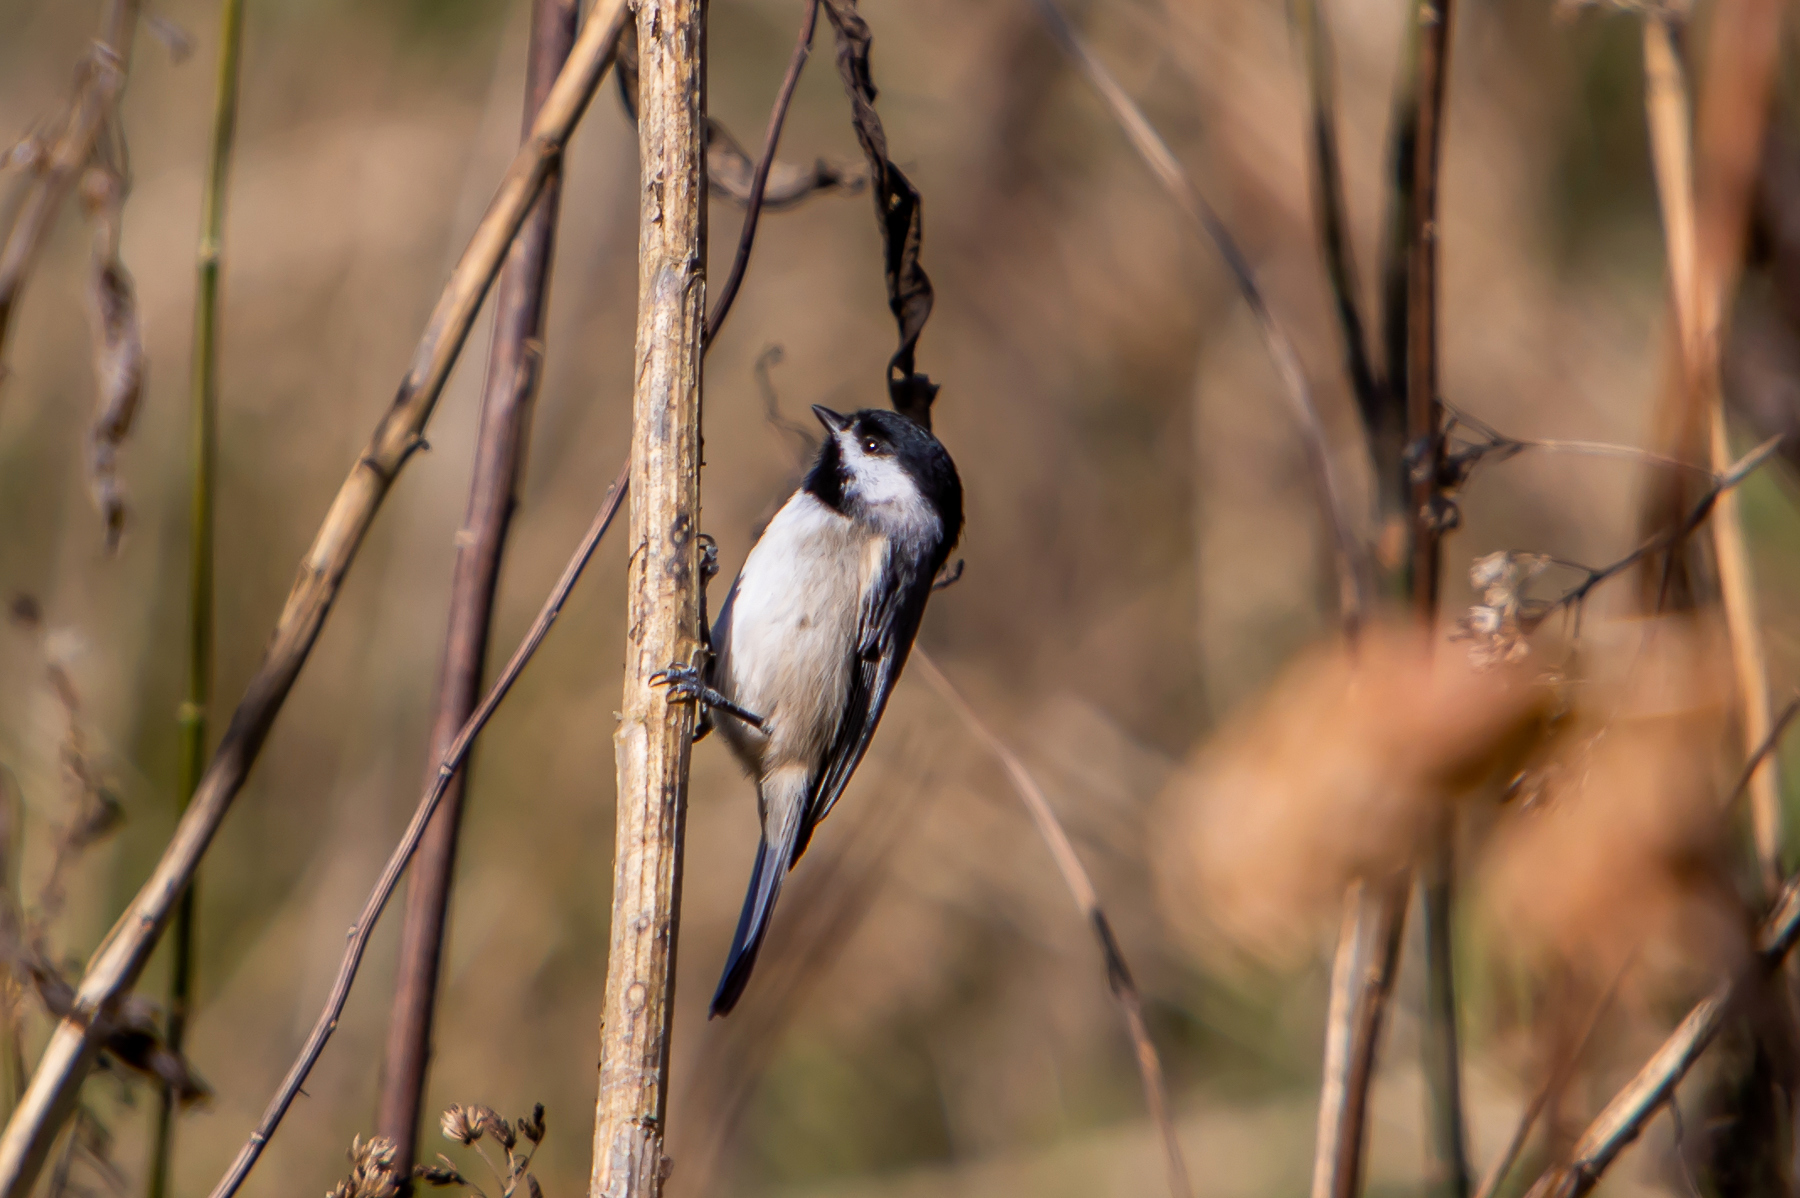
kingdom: Animalia
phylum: Chordata
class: Aves
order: Passeriformes
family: Paridae
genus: Poecile
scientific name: Poecile carolinensis
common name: Carolina chickadee
